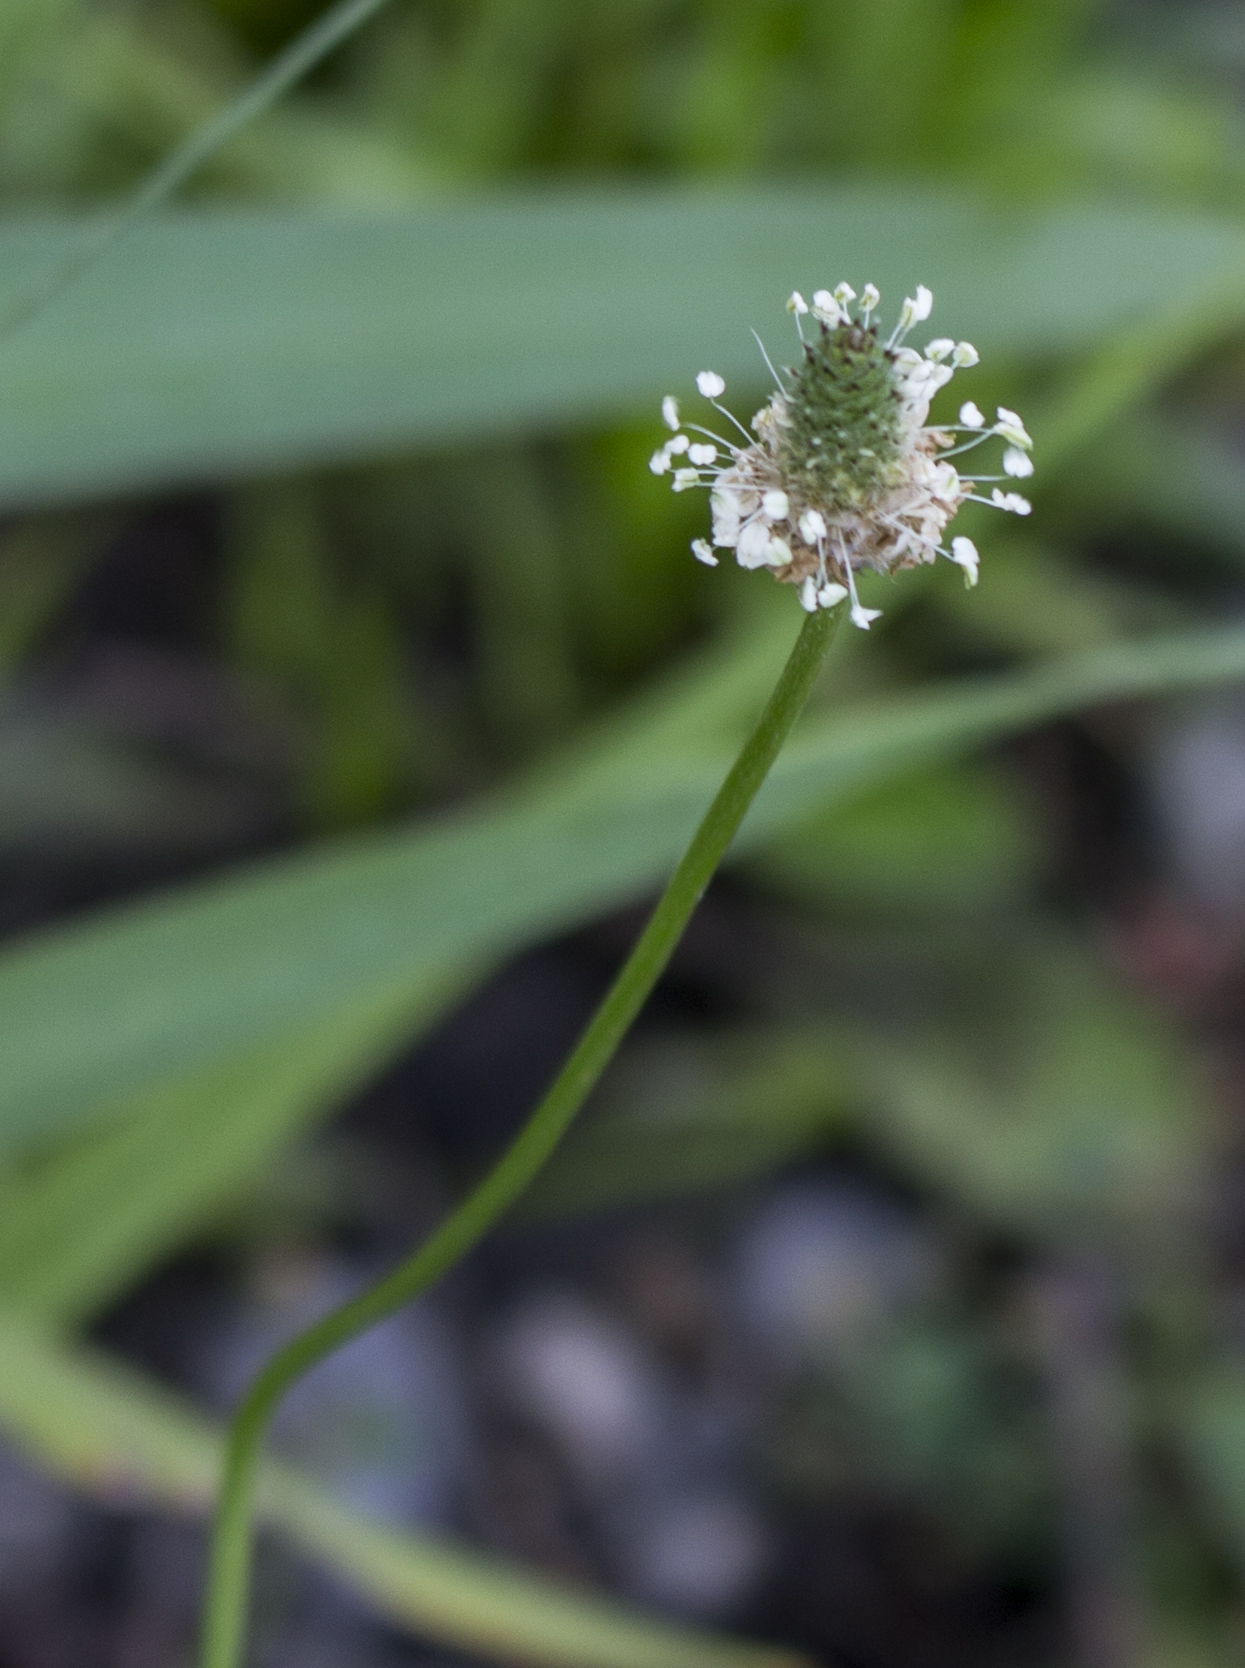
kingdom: Plantae
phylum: Tracheophyta
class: Magnoliopsida
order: Lamiales
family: Plantaginaceae
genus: Plantago
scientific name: Plantago lanceolata
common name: Ribwort plantain
